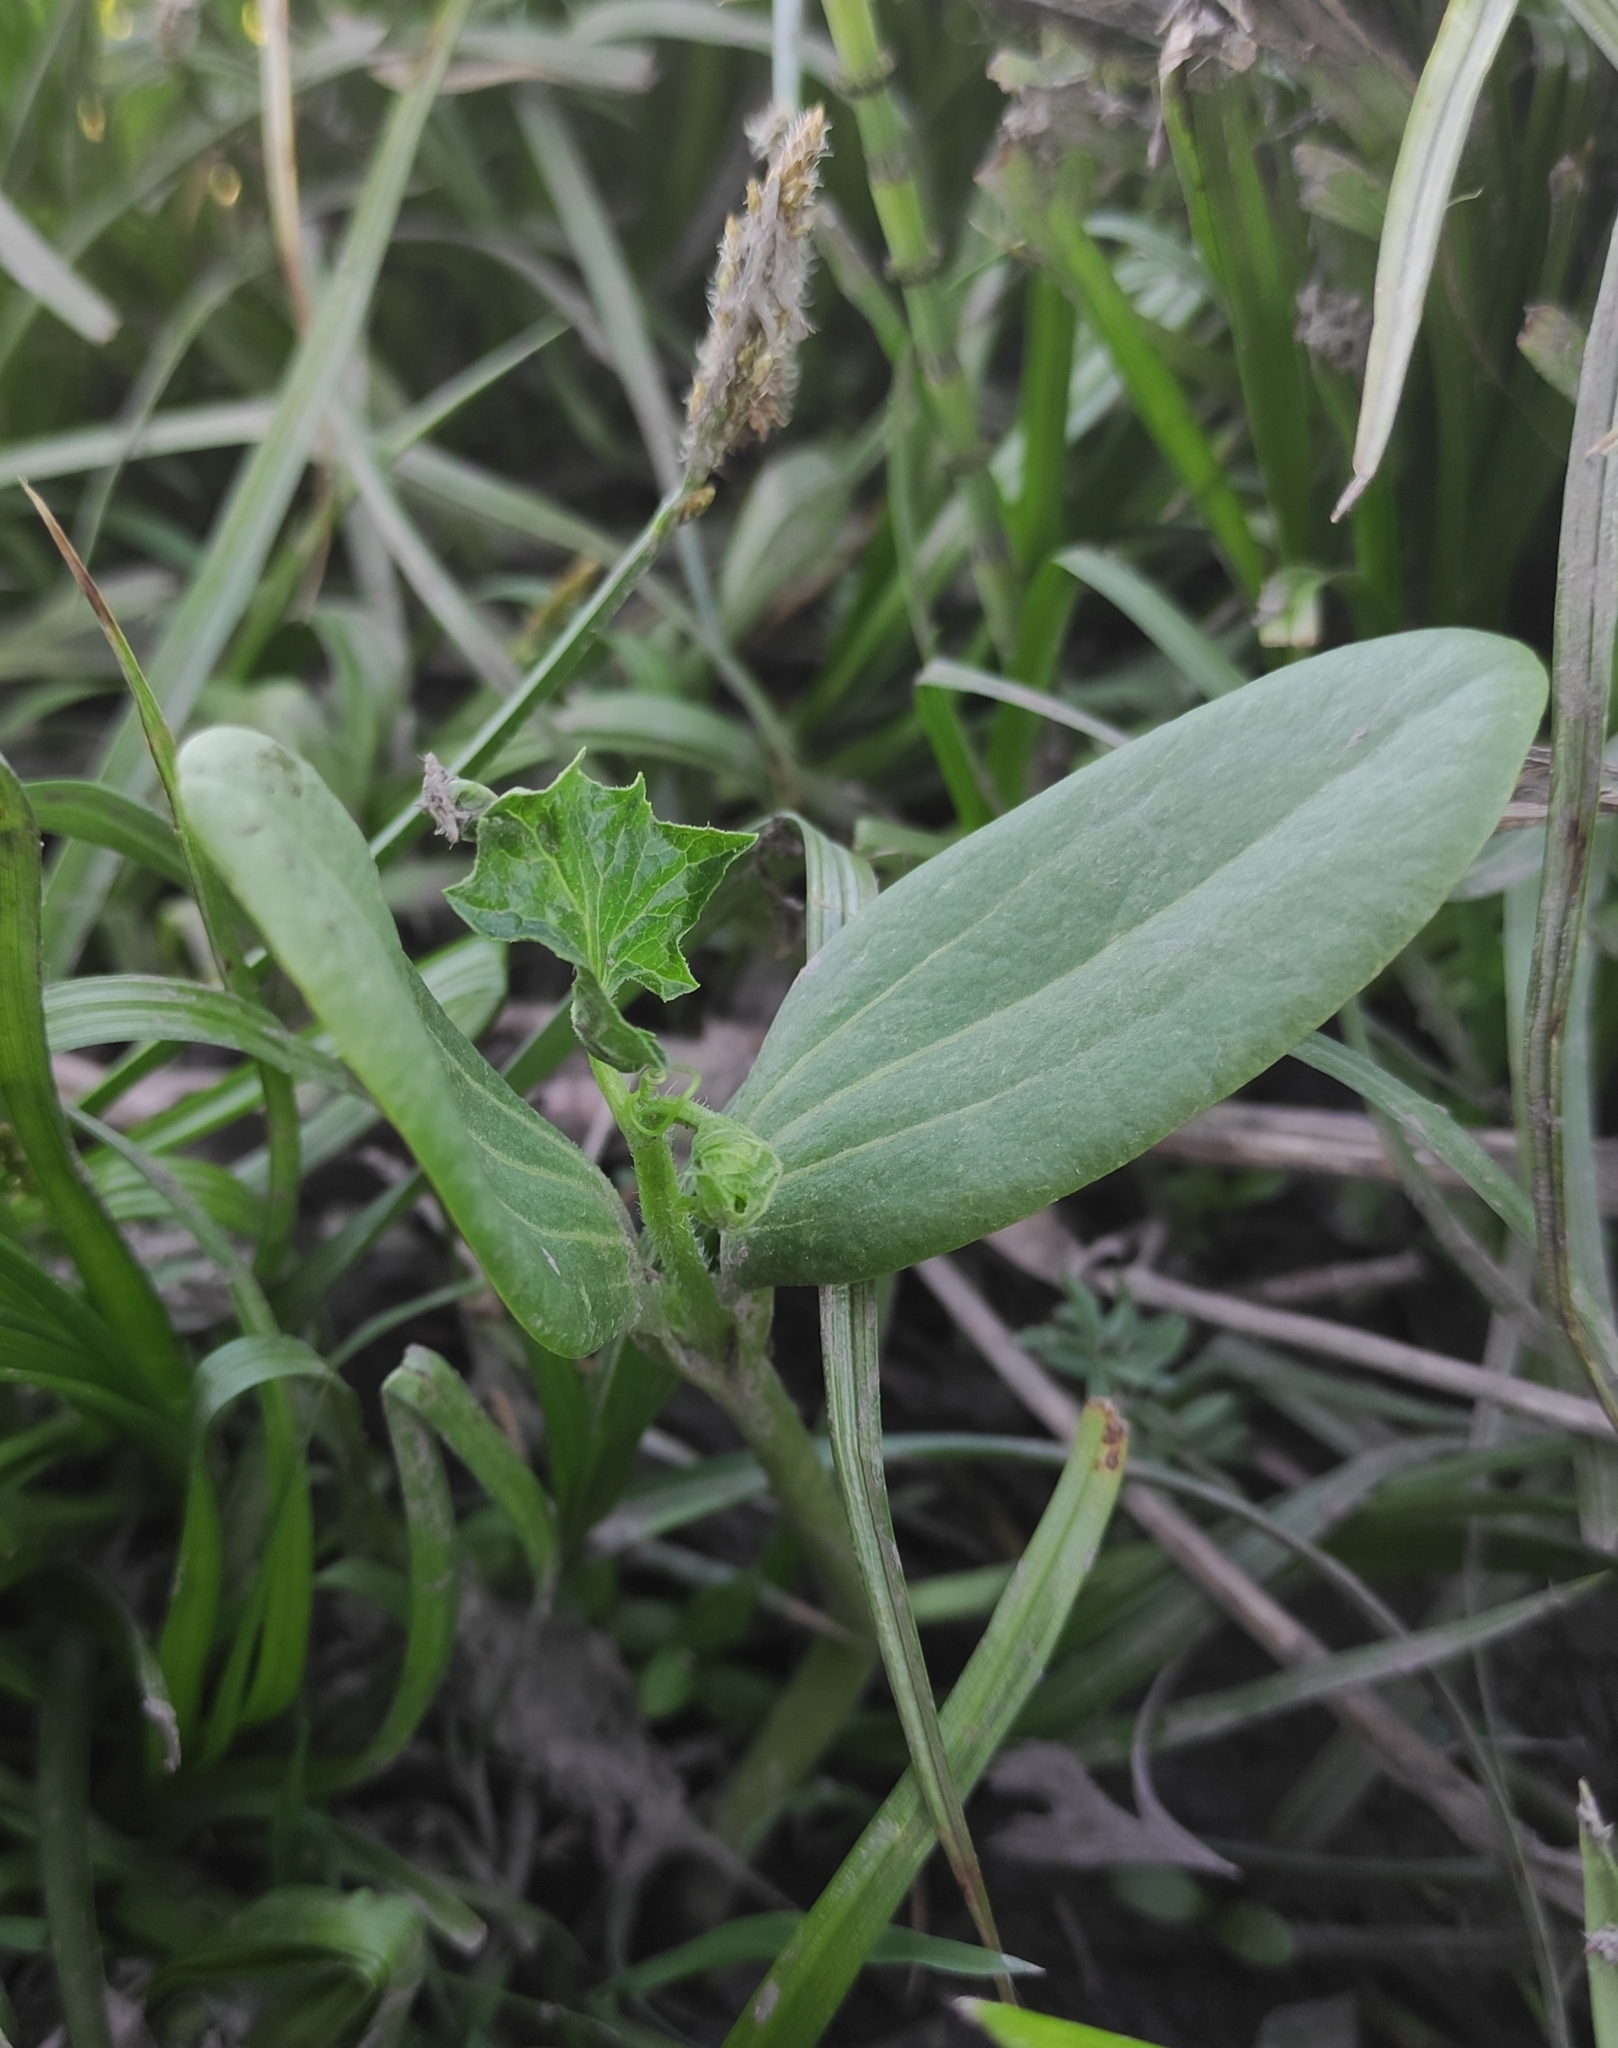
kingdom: Plantae
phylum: Tracheophyta
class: Magnoliopsida
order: Cucurbitales
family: Cucurbitaceae
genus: Echinocystis
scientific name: Echinocystis lobata
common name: Wild cucumber
